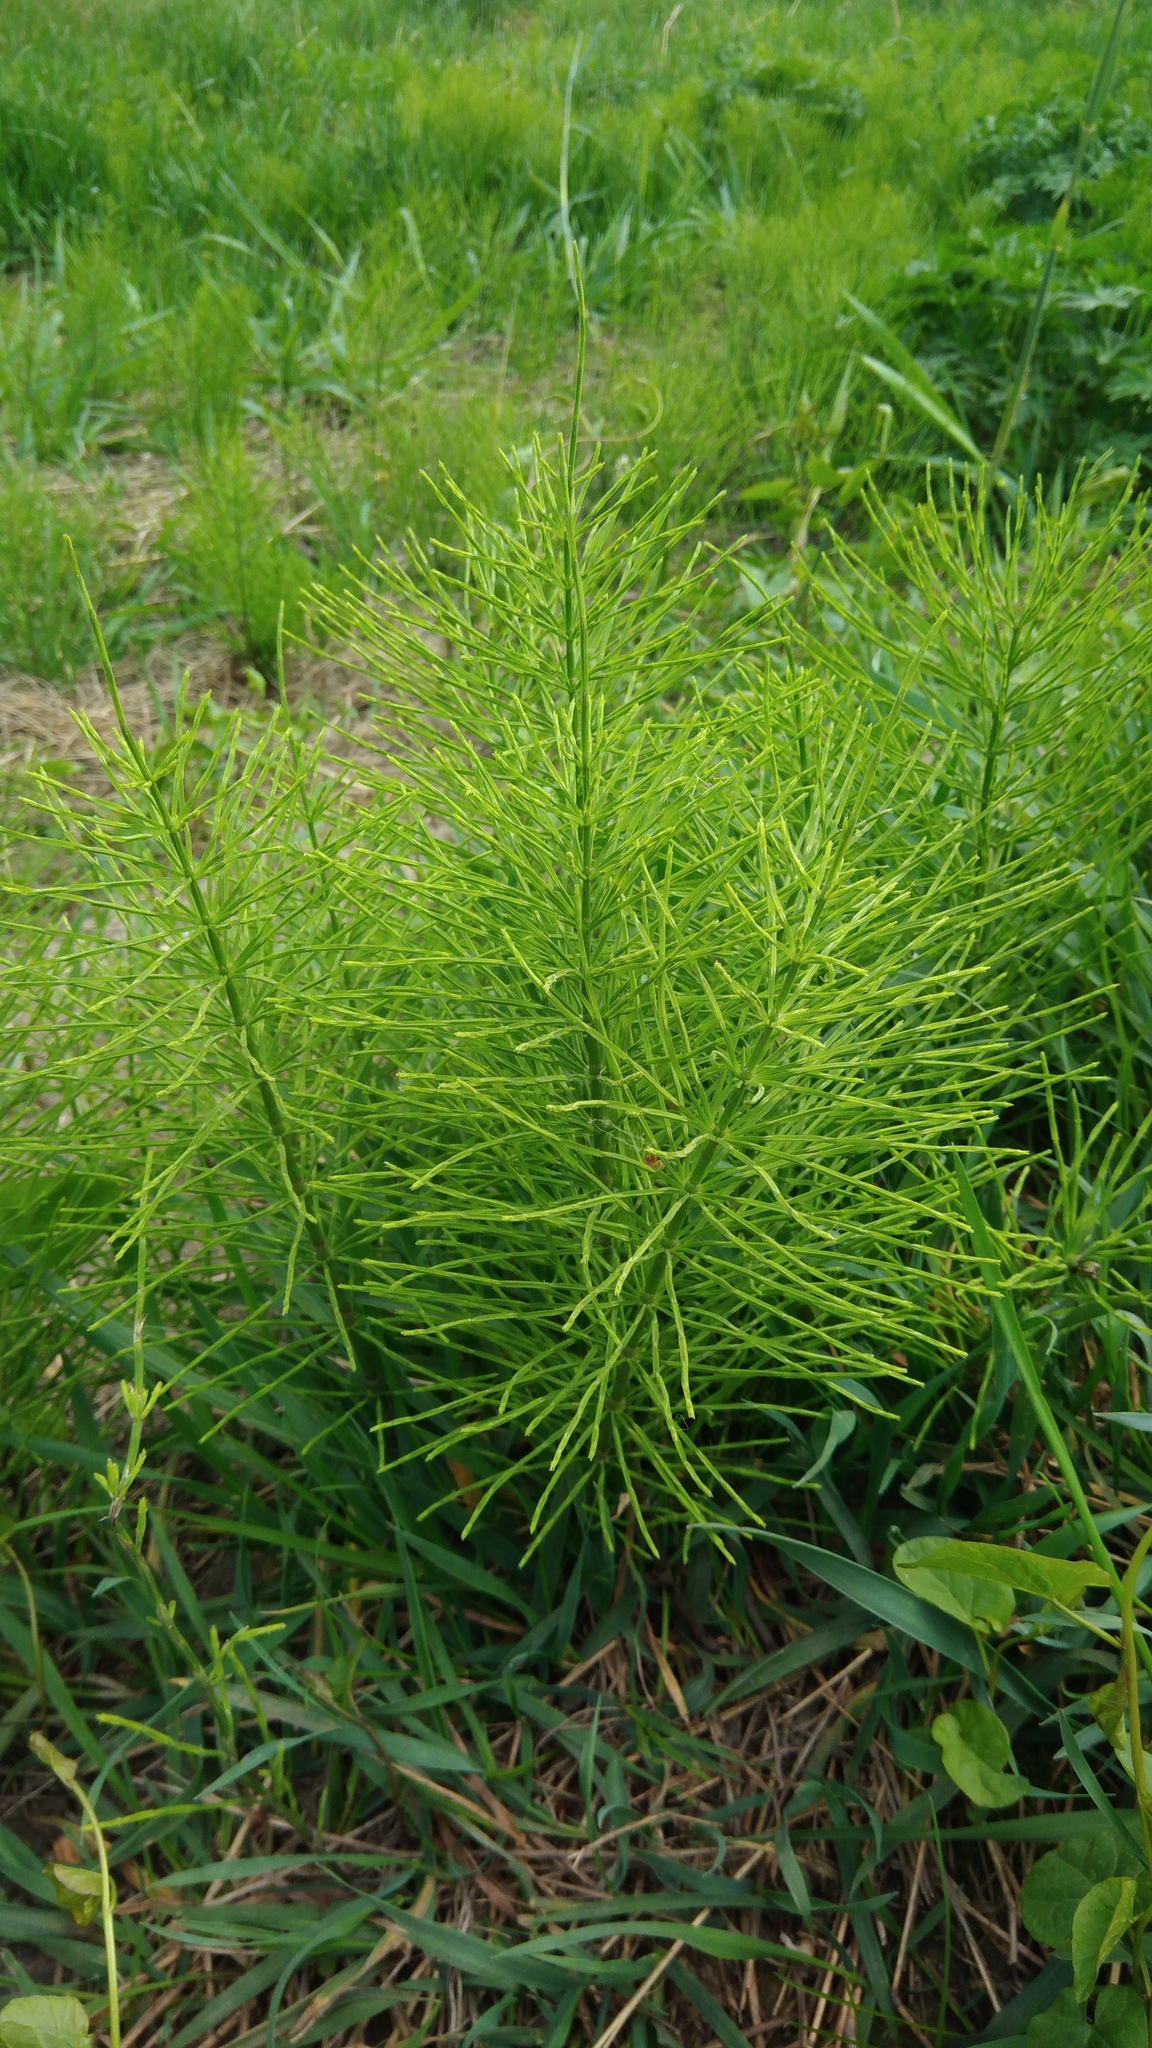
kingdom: Plantae
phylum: Tracheophyta
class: Polypodiopsida
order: Equisetales
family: Equisetaceae
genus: Equisetum
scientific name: Equisetum arvense
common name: Field horsetail
